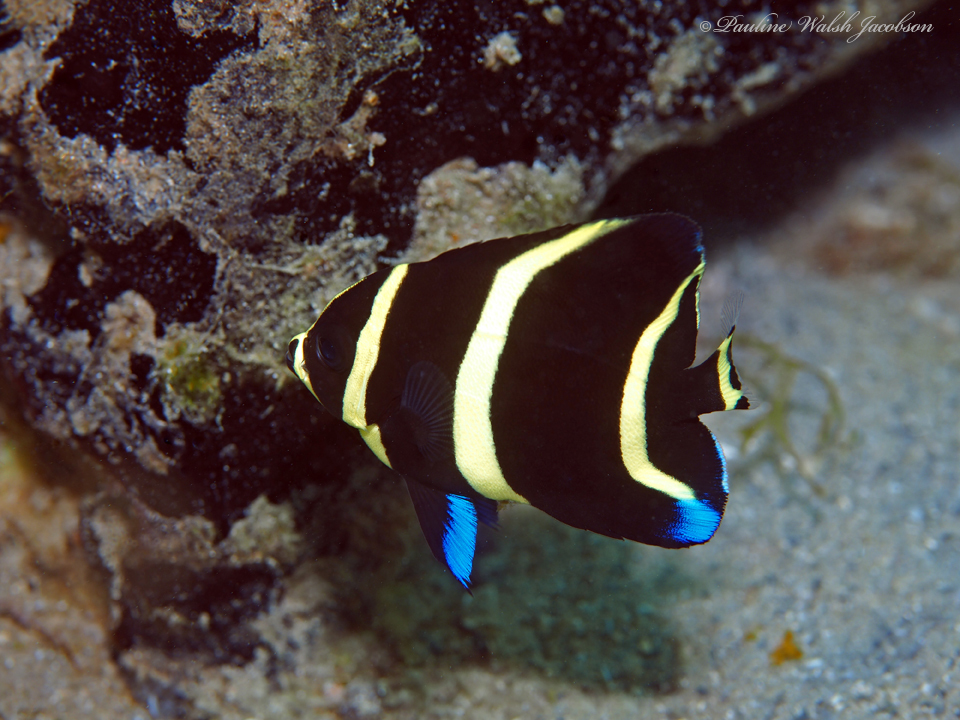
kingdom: Animalia
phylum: Chordata
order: Perciformes
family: Pomacanthidae
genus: Pomacanthus
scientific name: Pomacanthus arcuatus
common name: Gray angelfish
